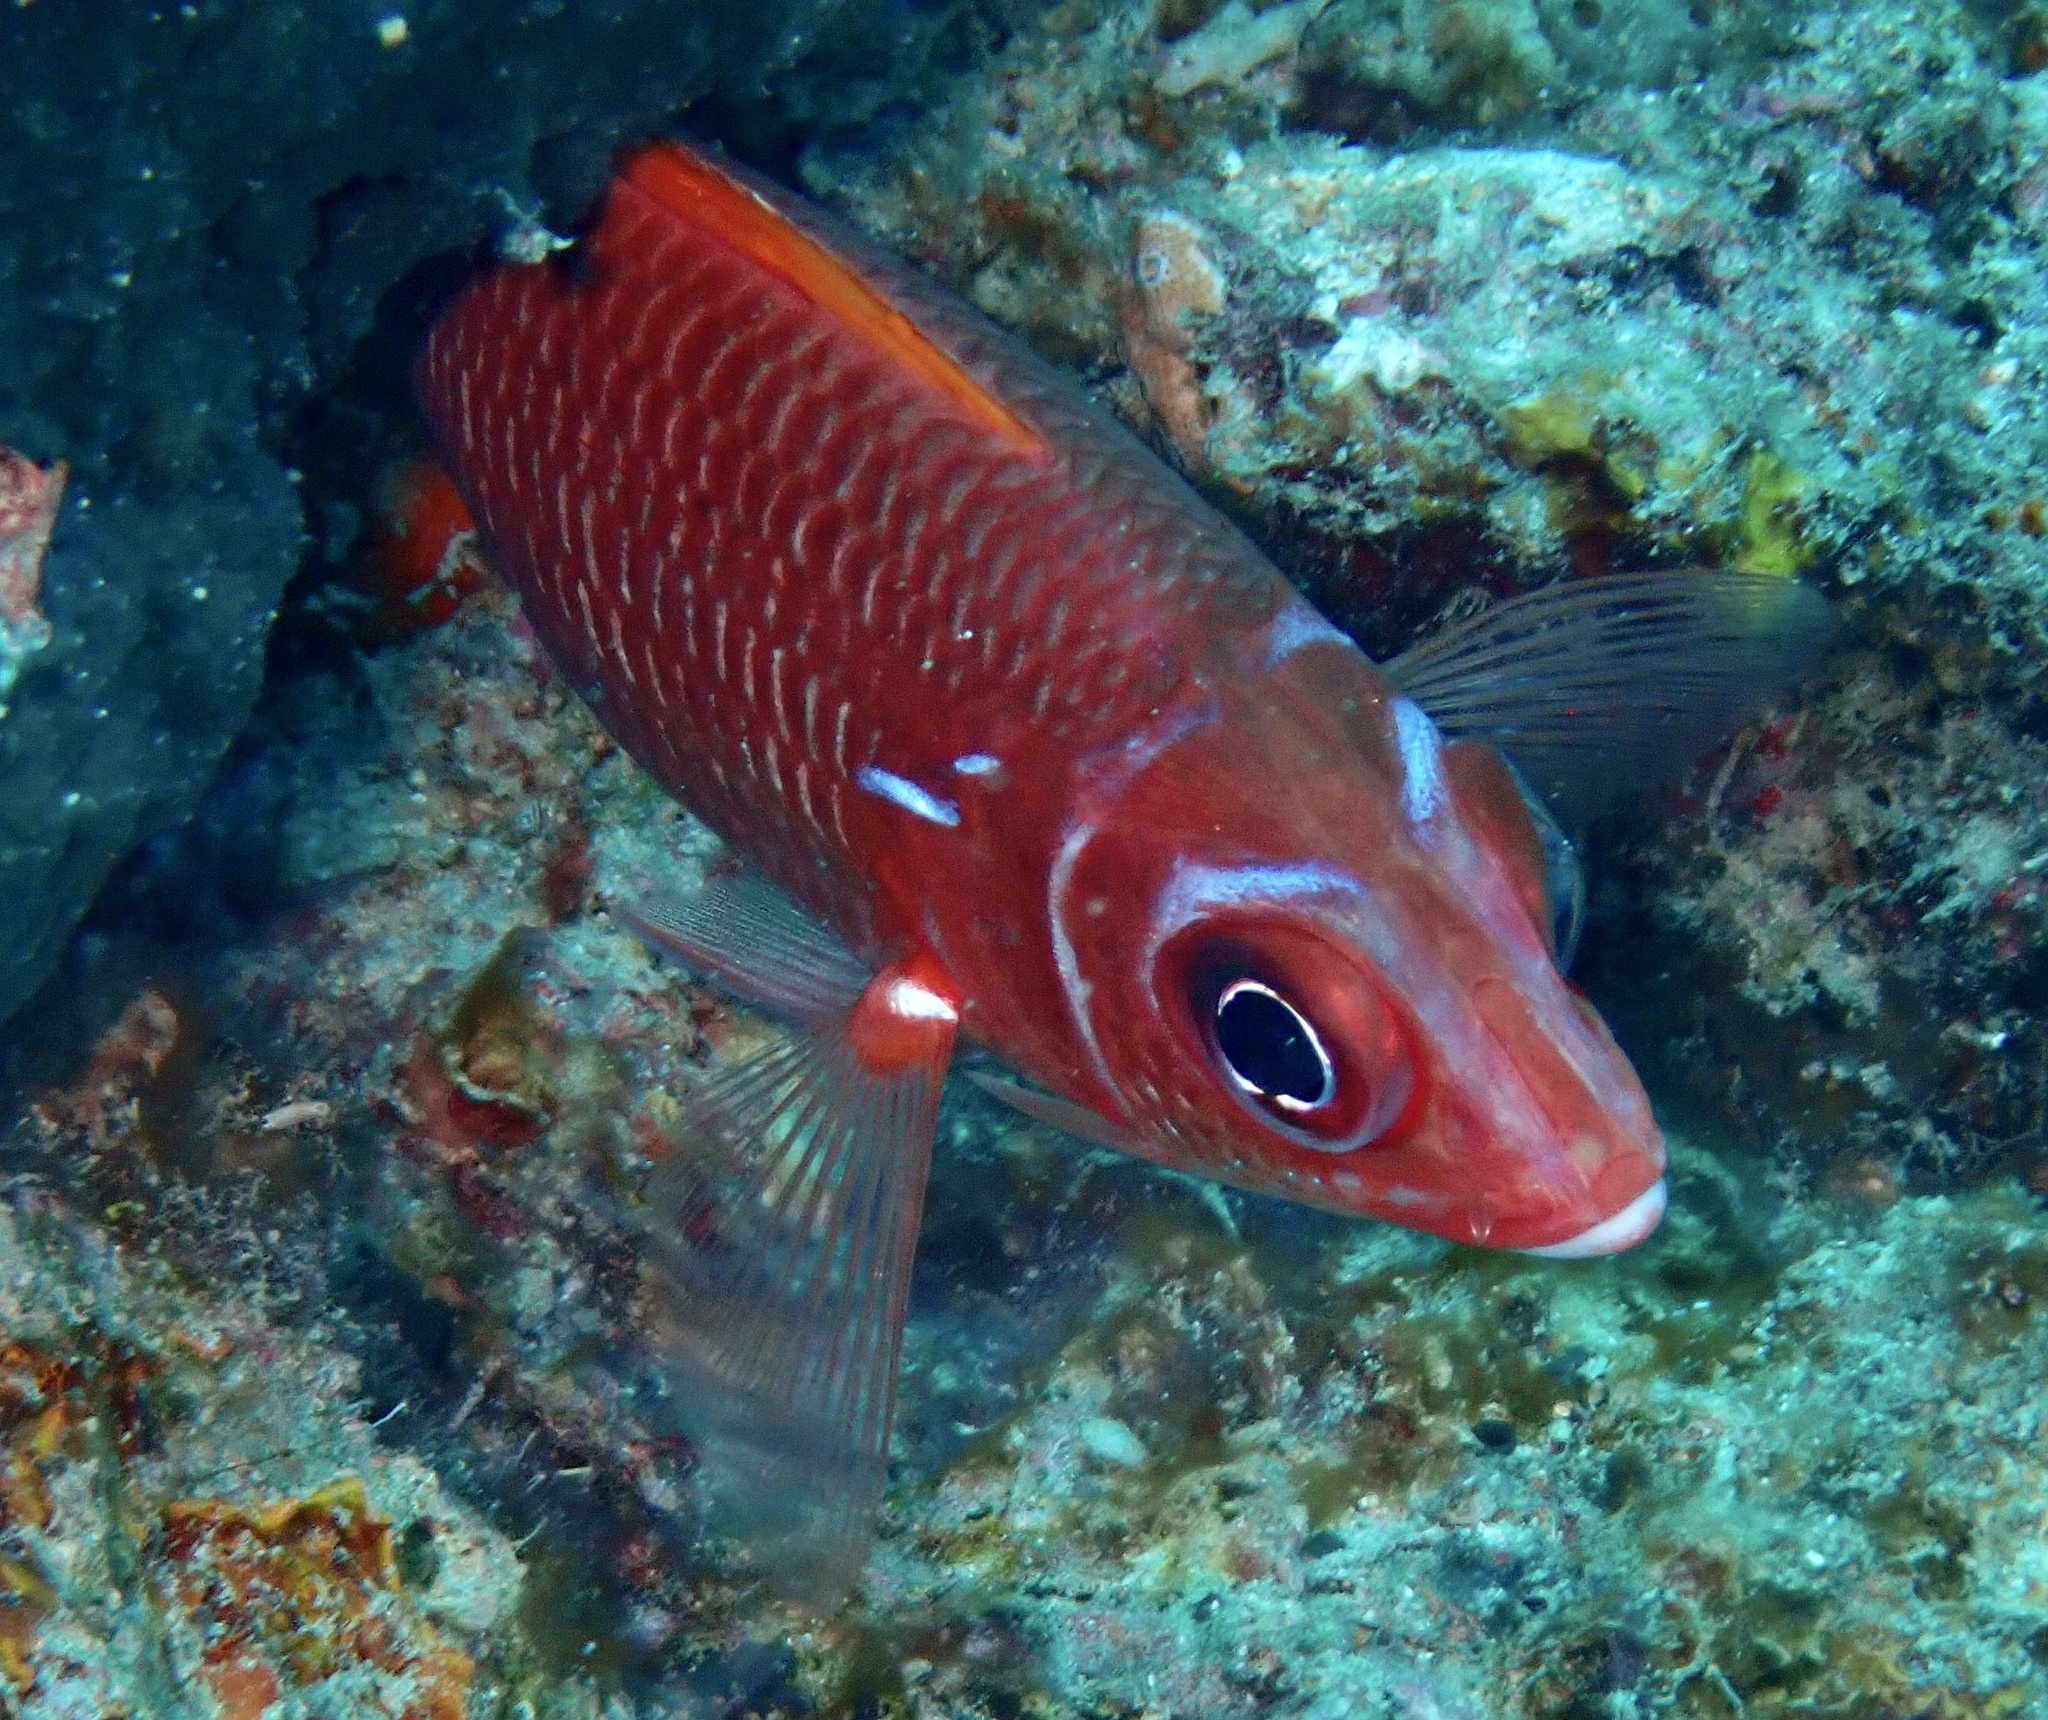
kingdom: Animalia
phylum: Chordata
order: Beryciformes
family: Holocentridae
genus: Sargocentron
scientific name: Sargocentron caudimaculatum
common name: Fanfin soldier
